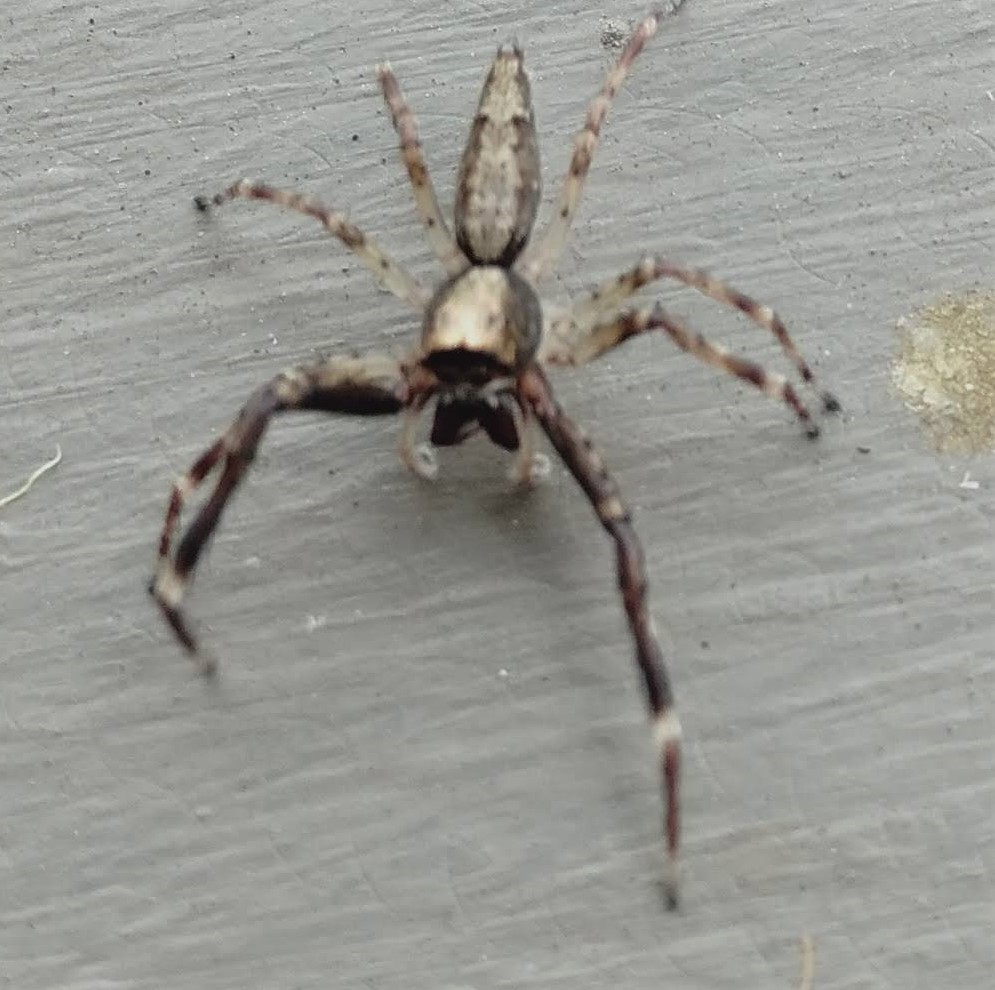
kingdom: Animalia
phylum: Arthropoda
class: Arachnida
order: Araneae
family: Salticidae
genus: Helpis
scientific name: Helpis minitabunda
